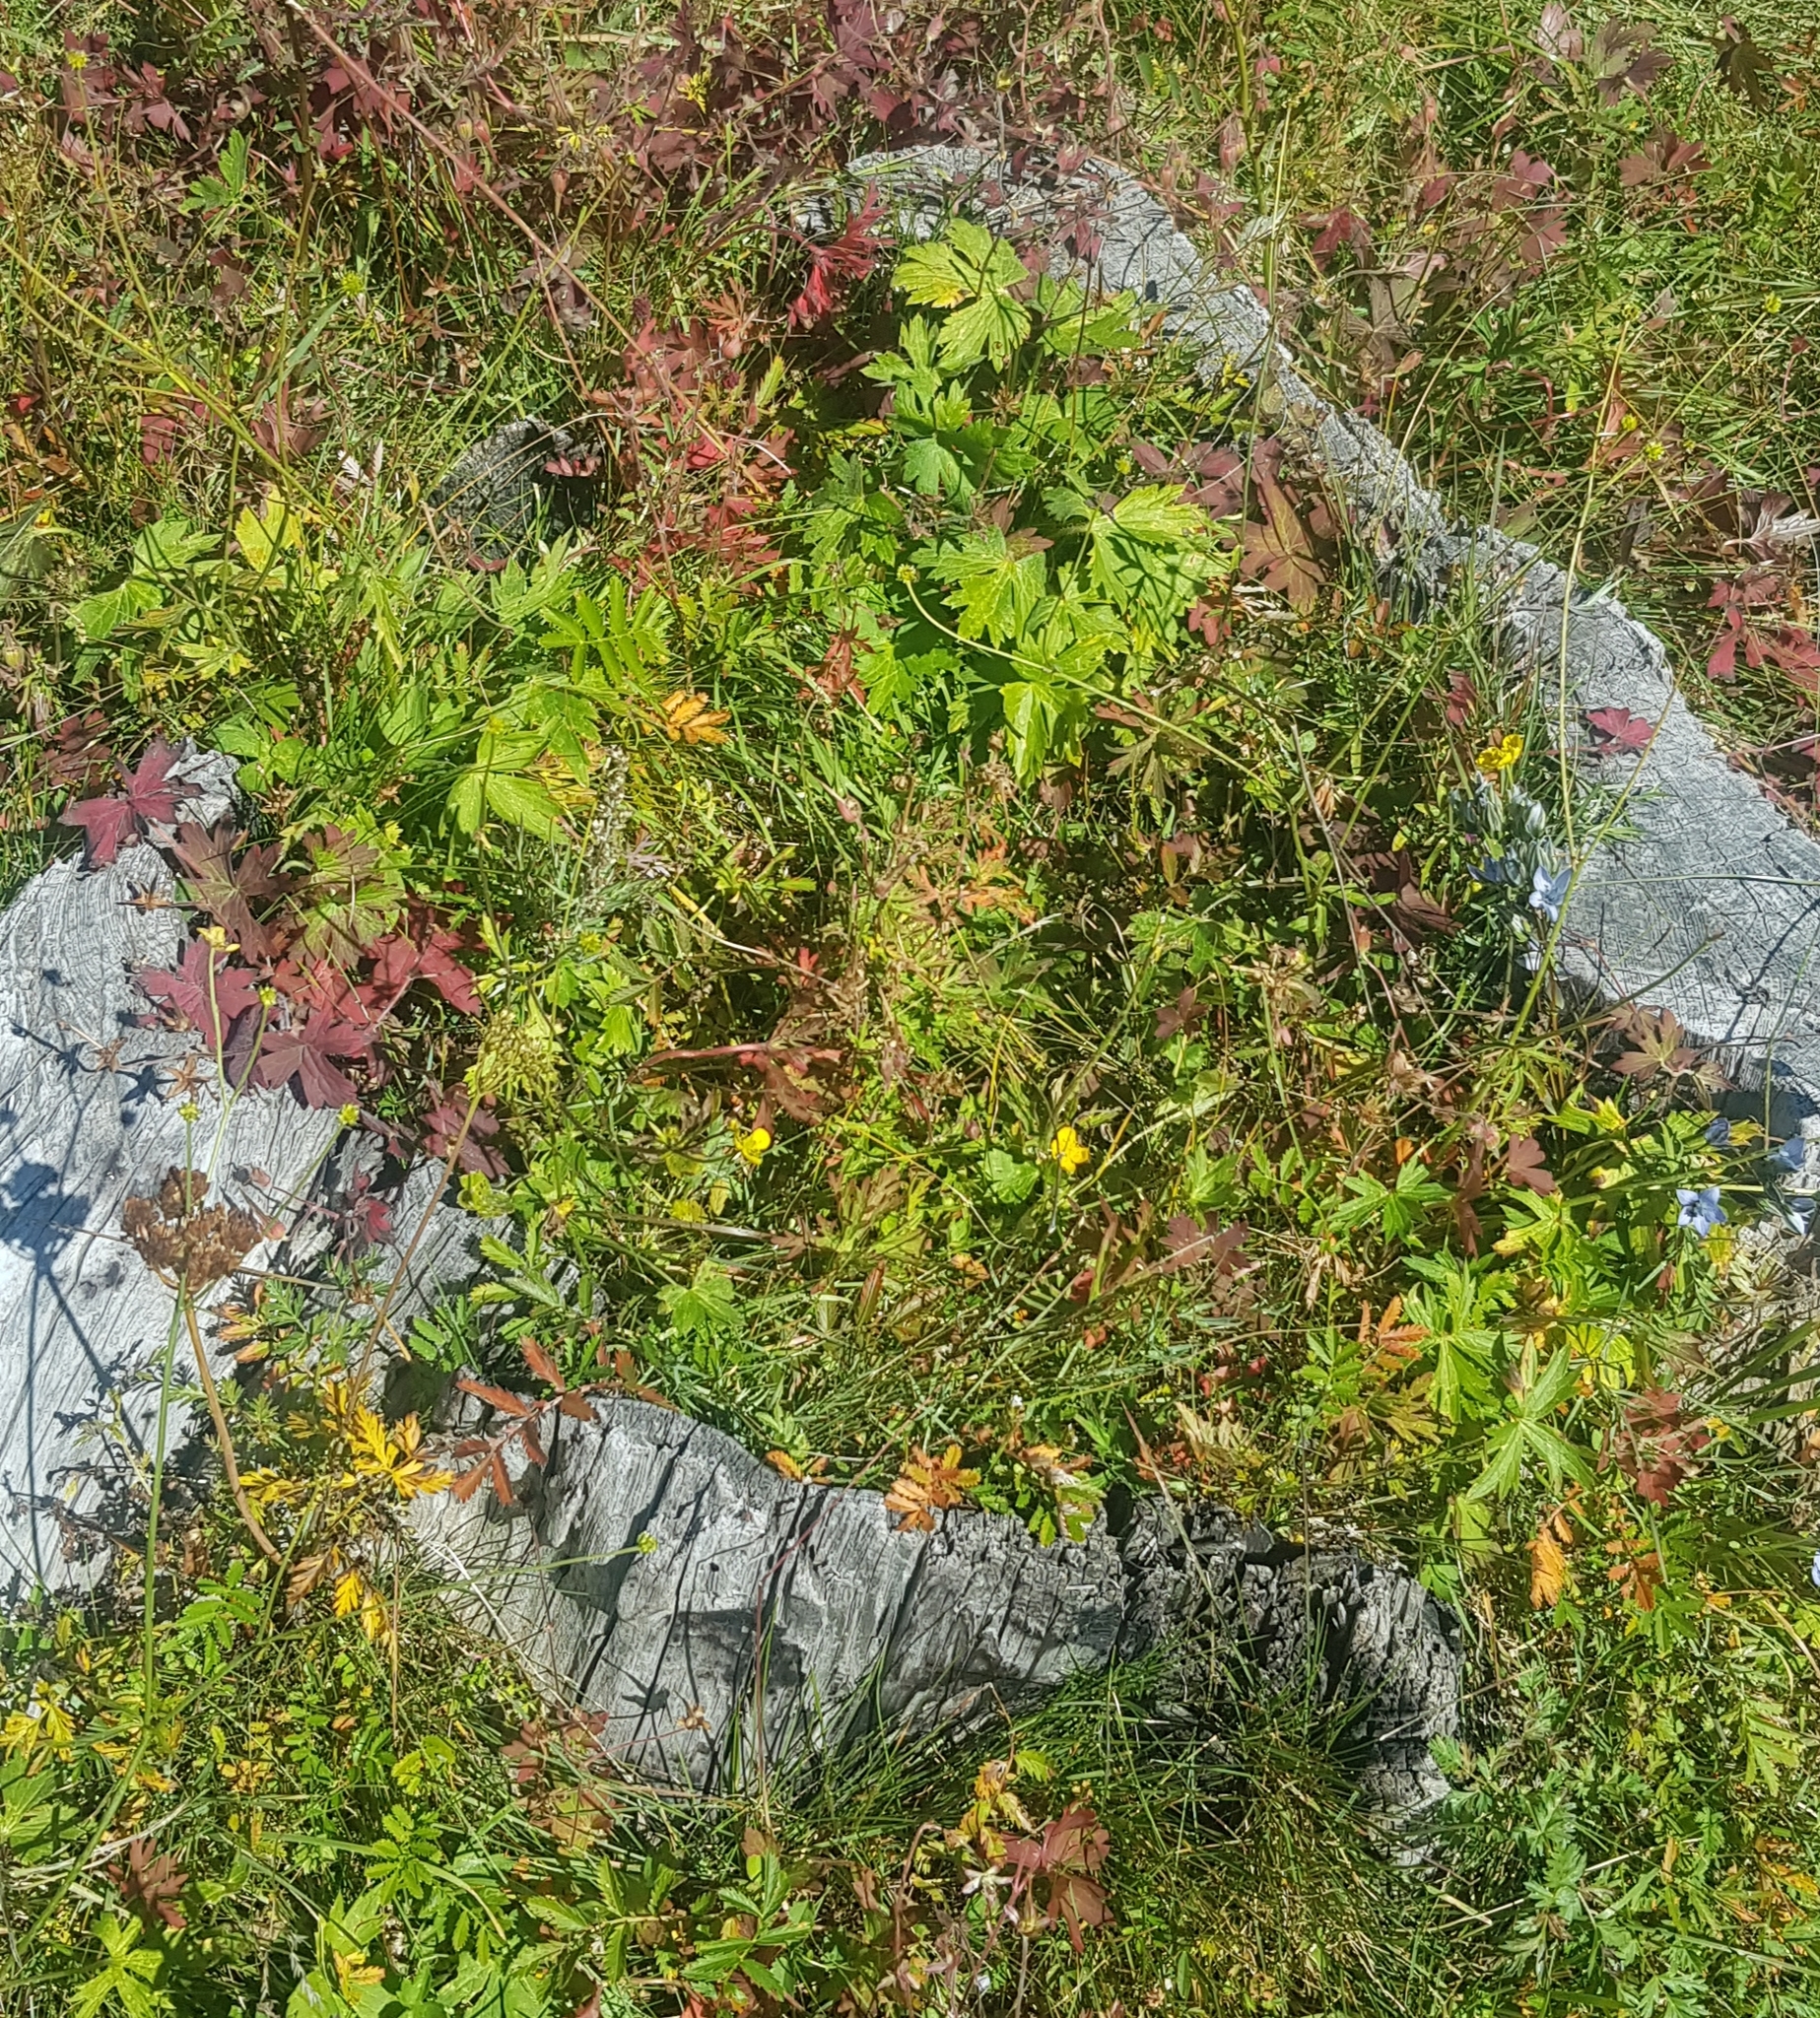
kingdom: Plantae
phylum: Tracheophyta
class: Magnoliopsida
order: Ranunculales
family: Ranunculaceae
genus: Ranunculus
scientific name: Ranunculus repens
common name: Creeping buttercup
